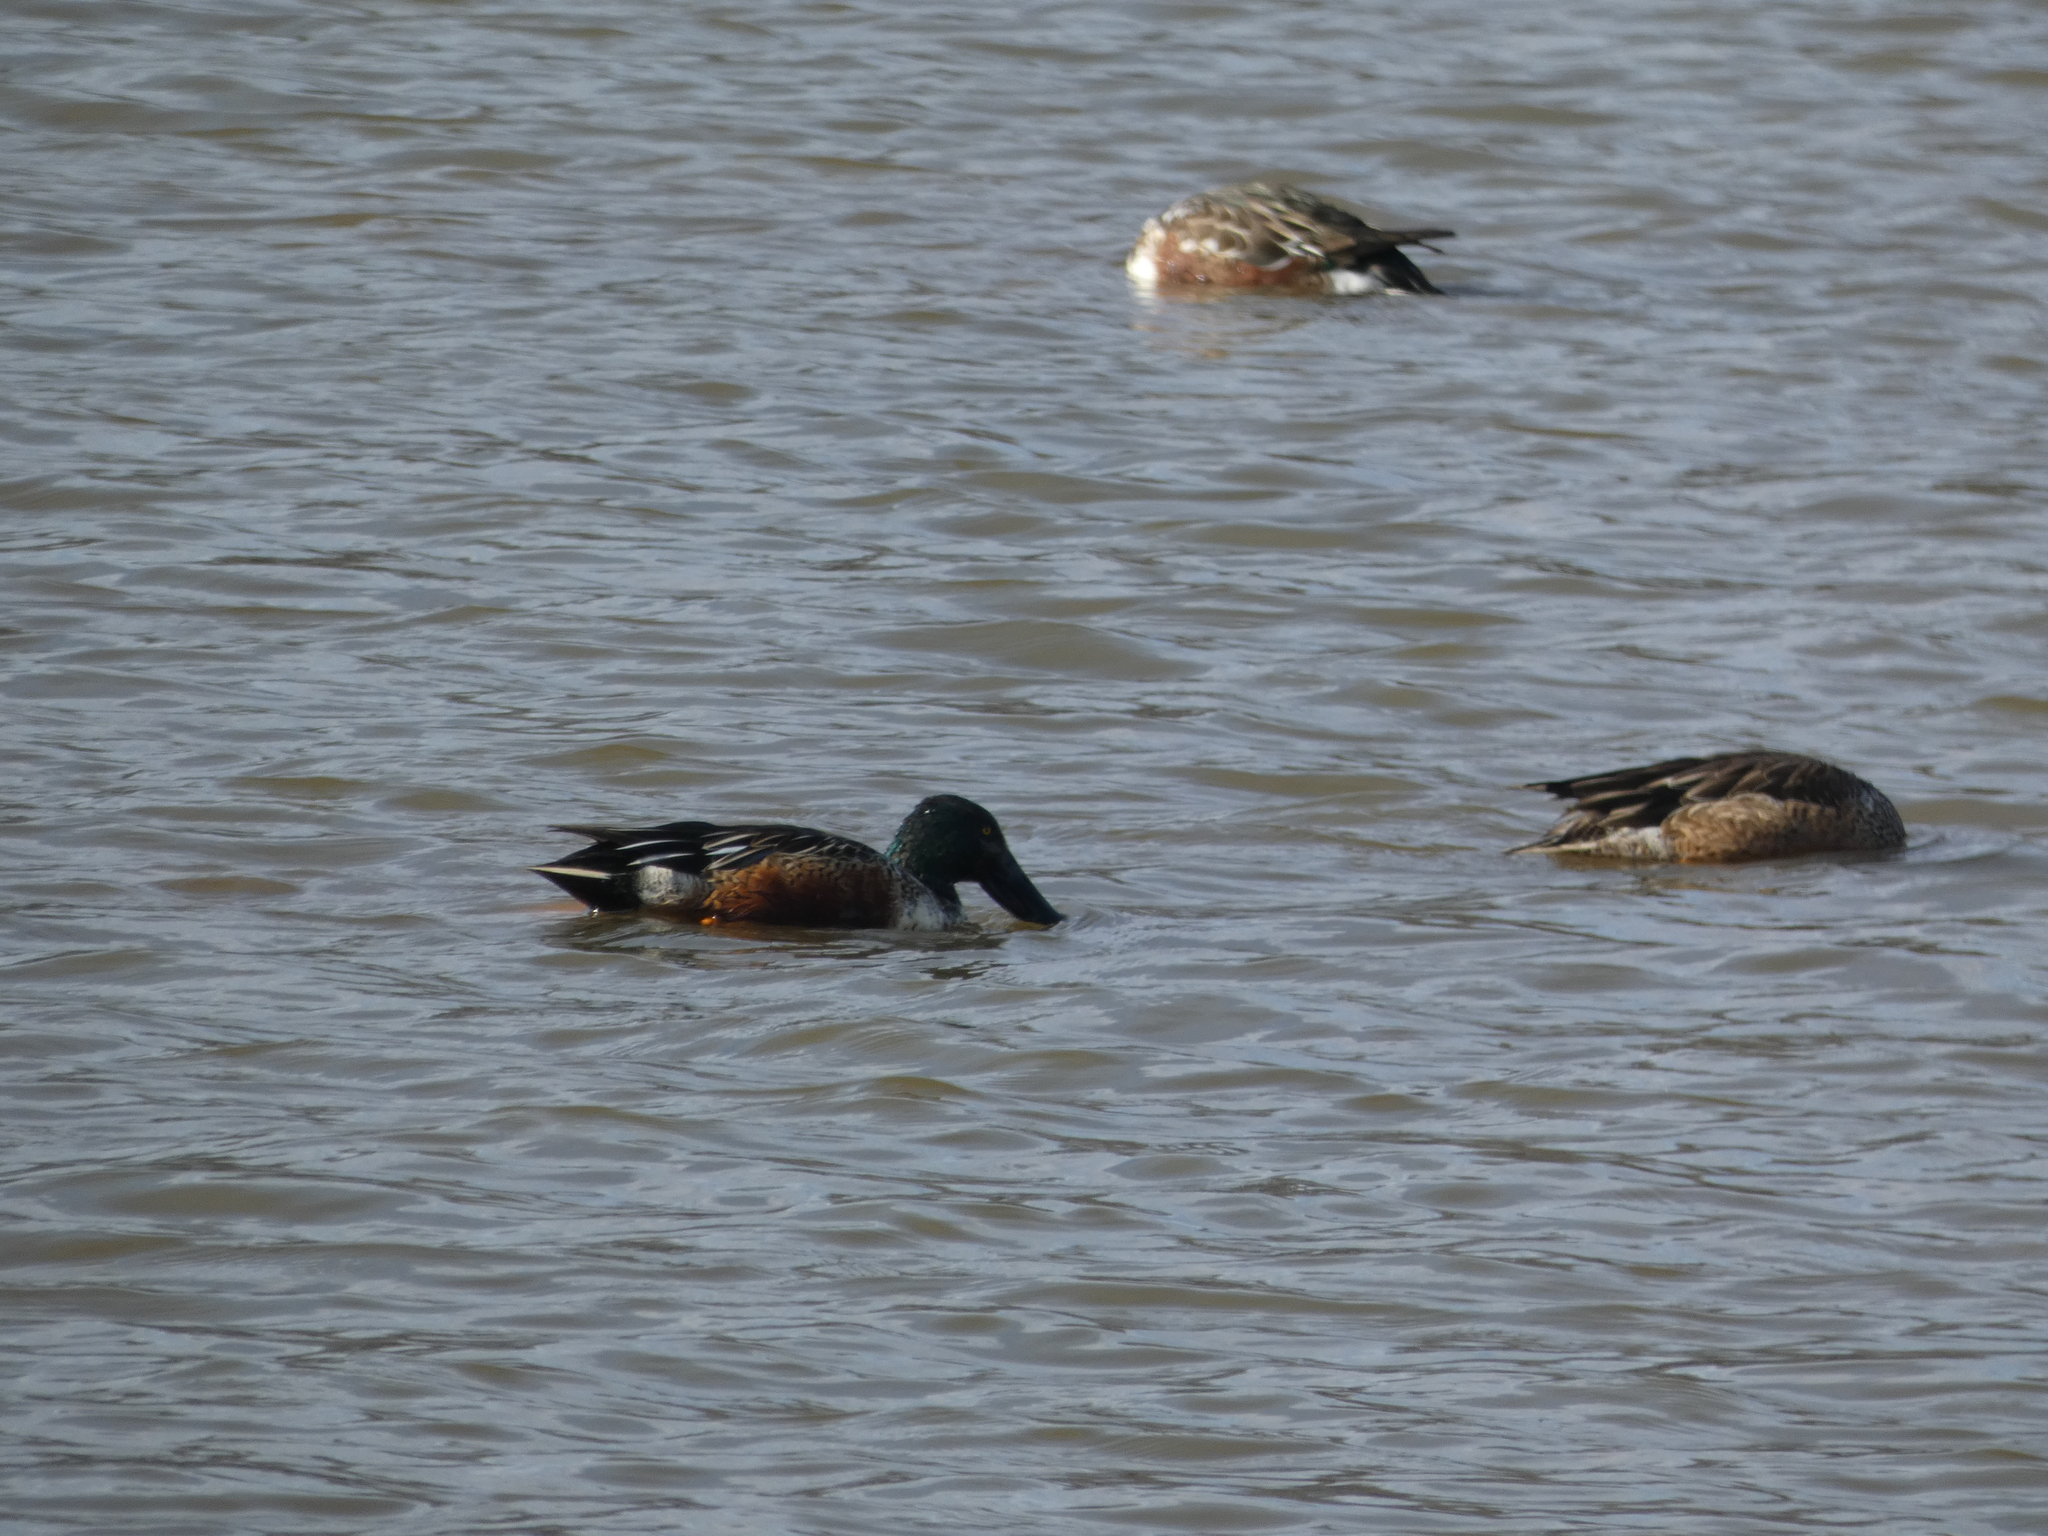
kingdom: Animalia
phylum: Chordata
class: Aves
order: Anseriformes
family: Anatidae
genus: Spatula
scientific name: Spatula clypeata
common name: Northern shoveler
